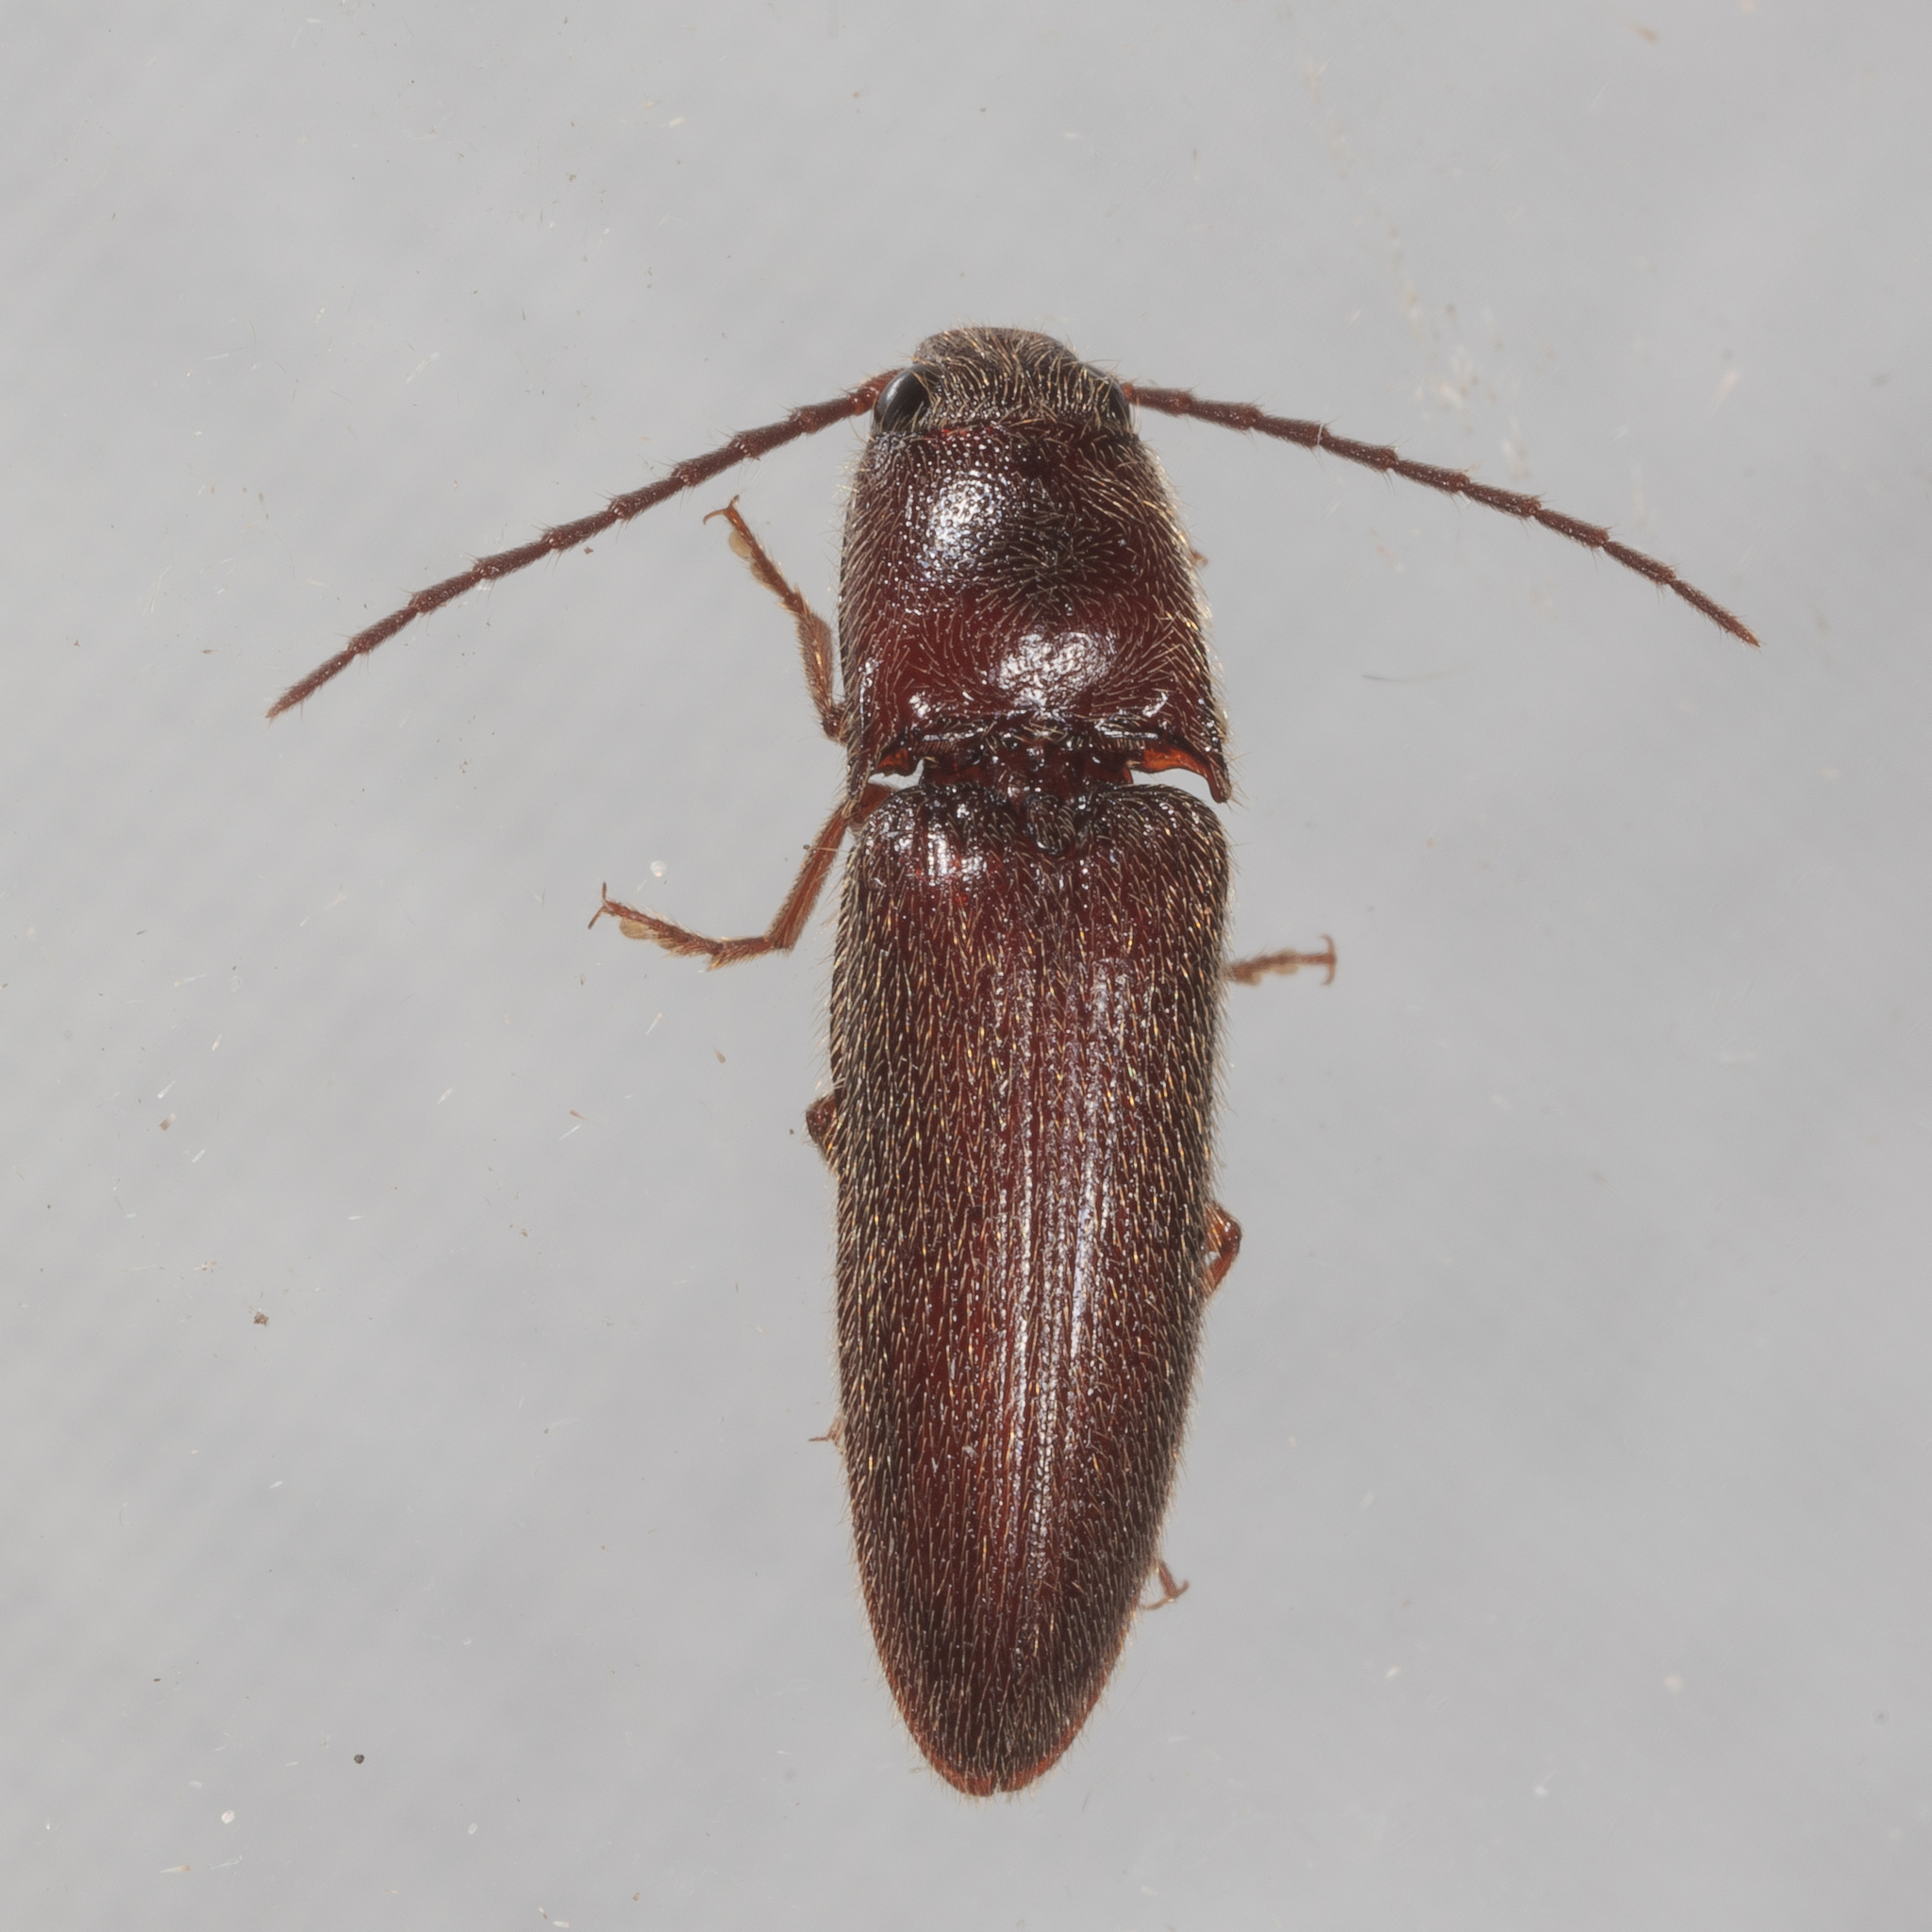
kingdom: Animalia
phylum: Arthropoda
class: Insecta
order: Coleoptera
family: Elateridae
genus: Dipropus
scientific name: Dipropus
